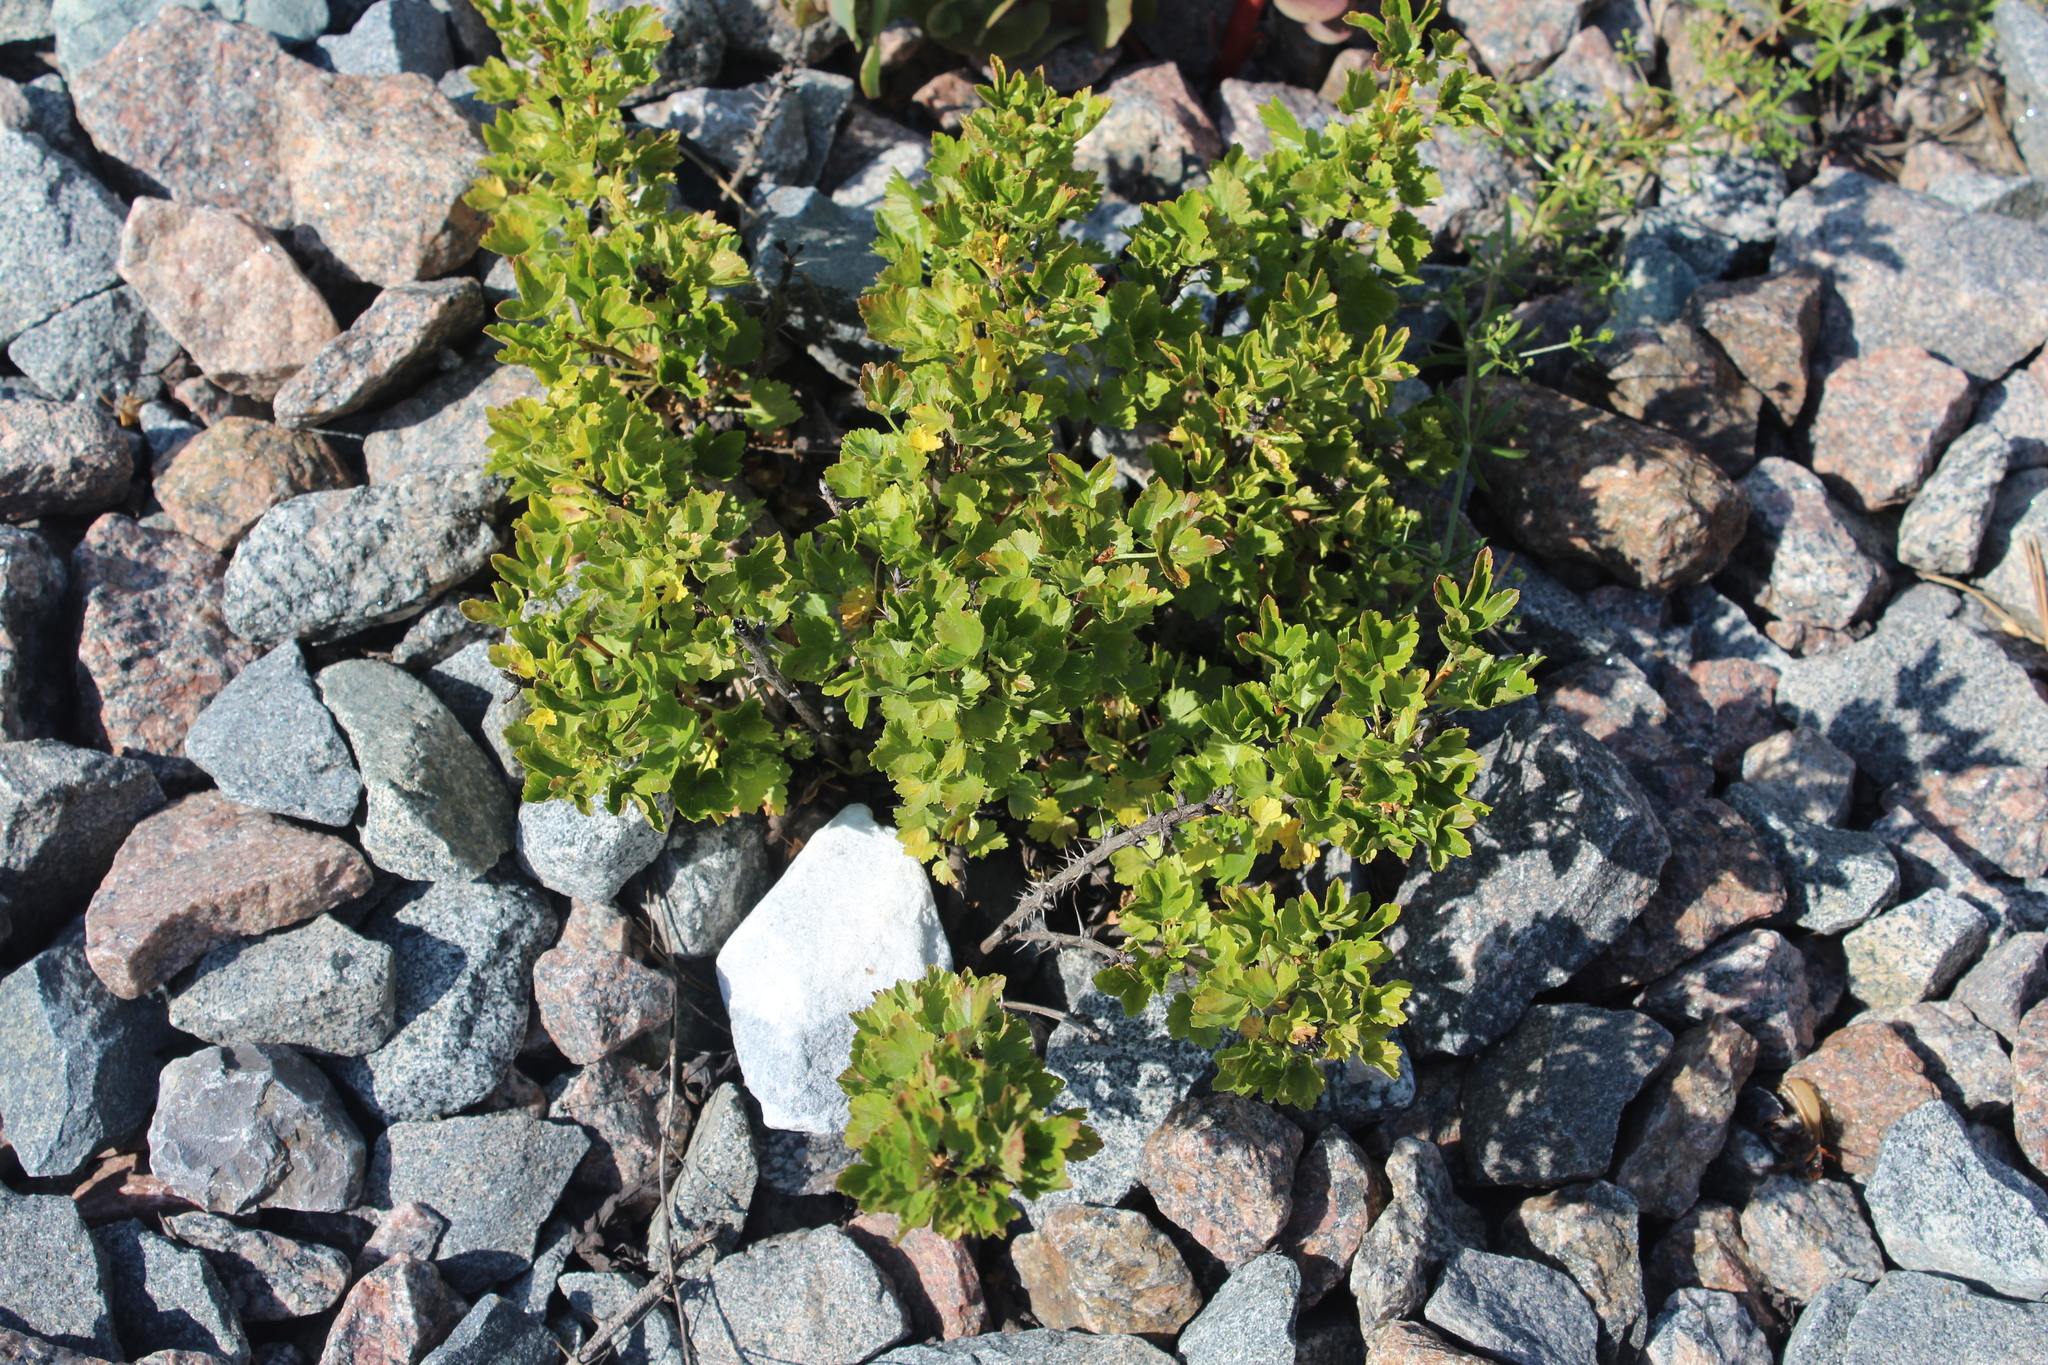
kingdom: Plantae
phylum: Tracheophyta
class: Magnoliopsida
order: Saxifragales
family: Grossulariaceae
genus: Ribes
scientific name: Ribes uva-crispa
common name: Gooseberry
